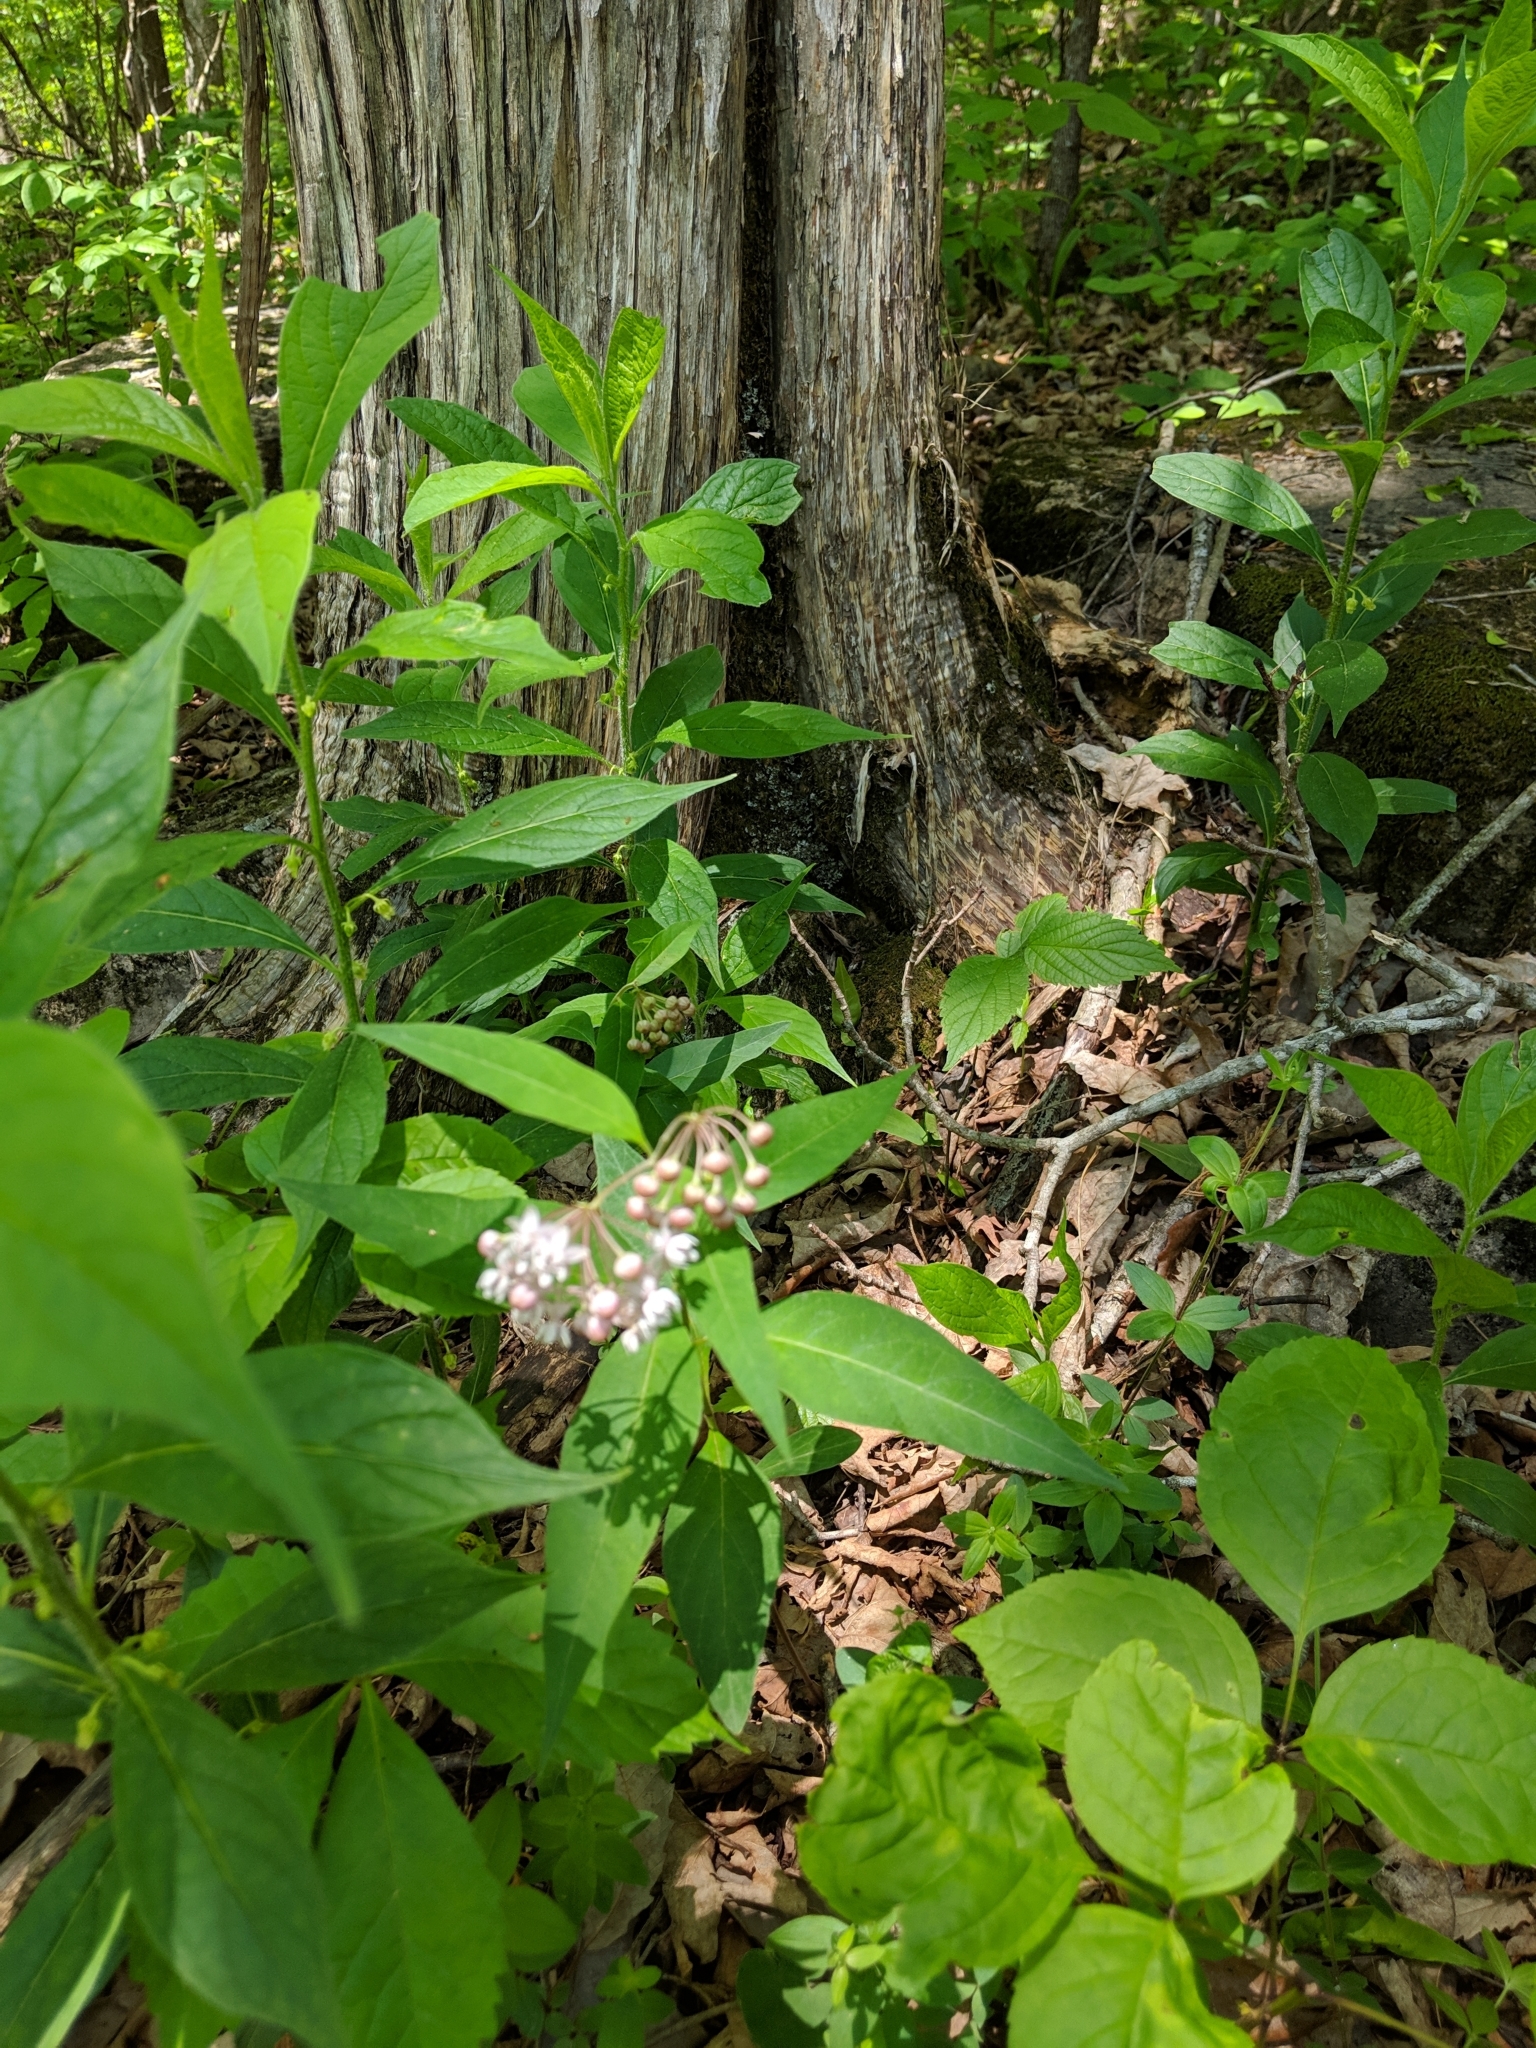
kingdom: Plantae
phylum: Tracheophyta
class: Magnoliopsida
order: Gentianales
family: Apocynaceae
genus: Asclepias
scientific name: Asclepias quadrifolia
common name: Whorled milkweed
